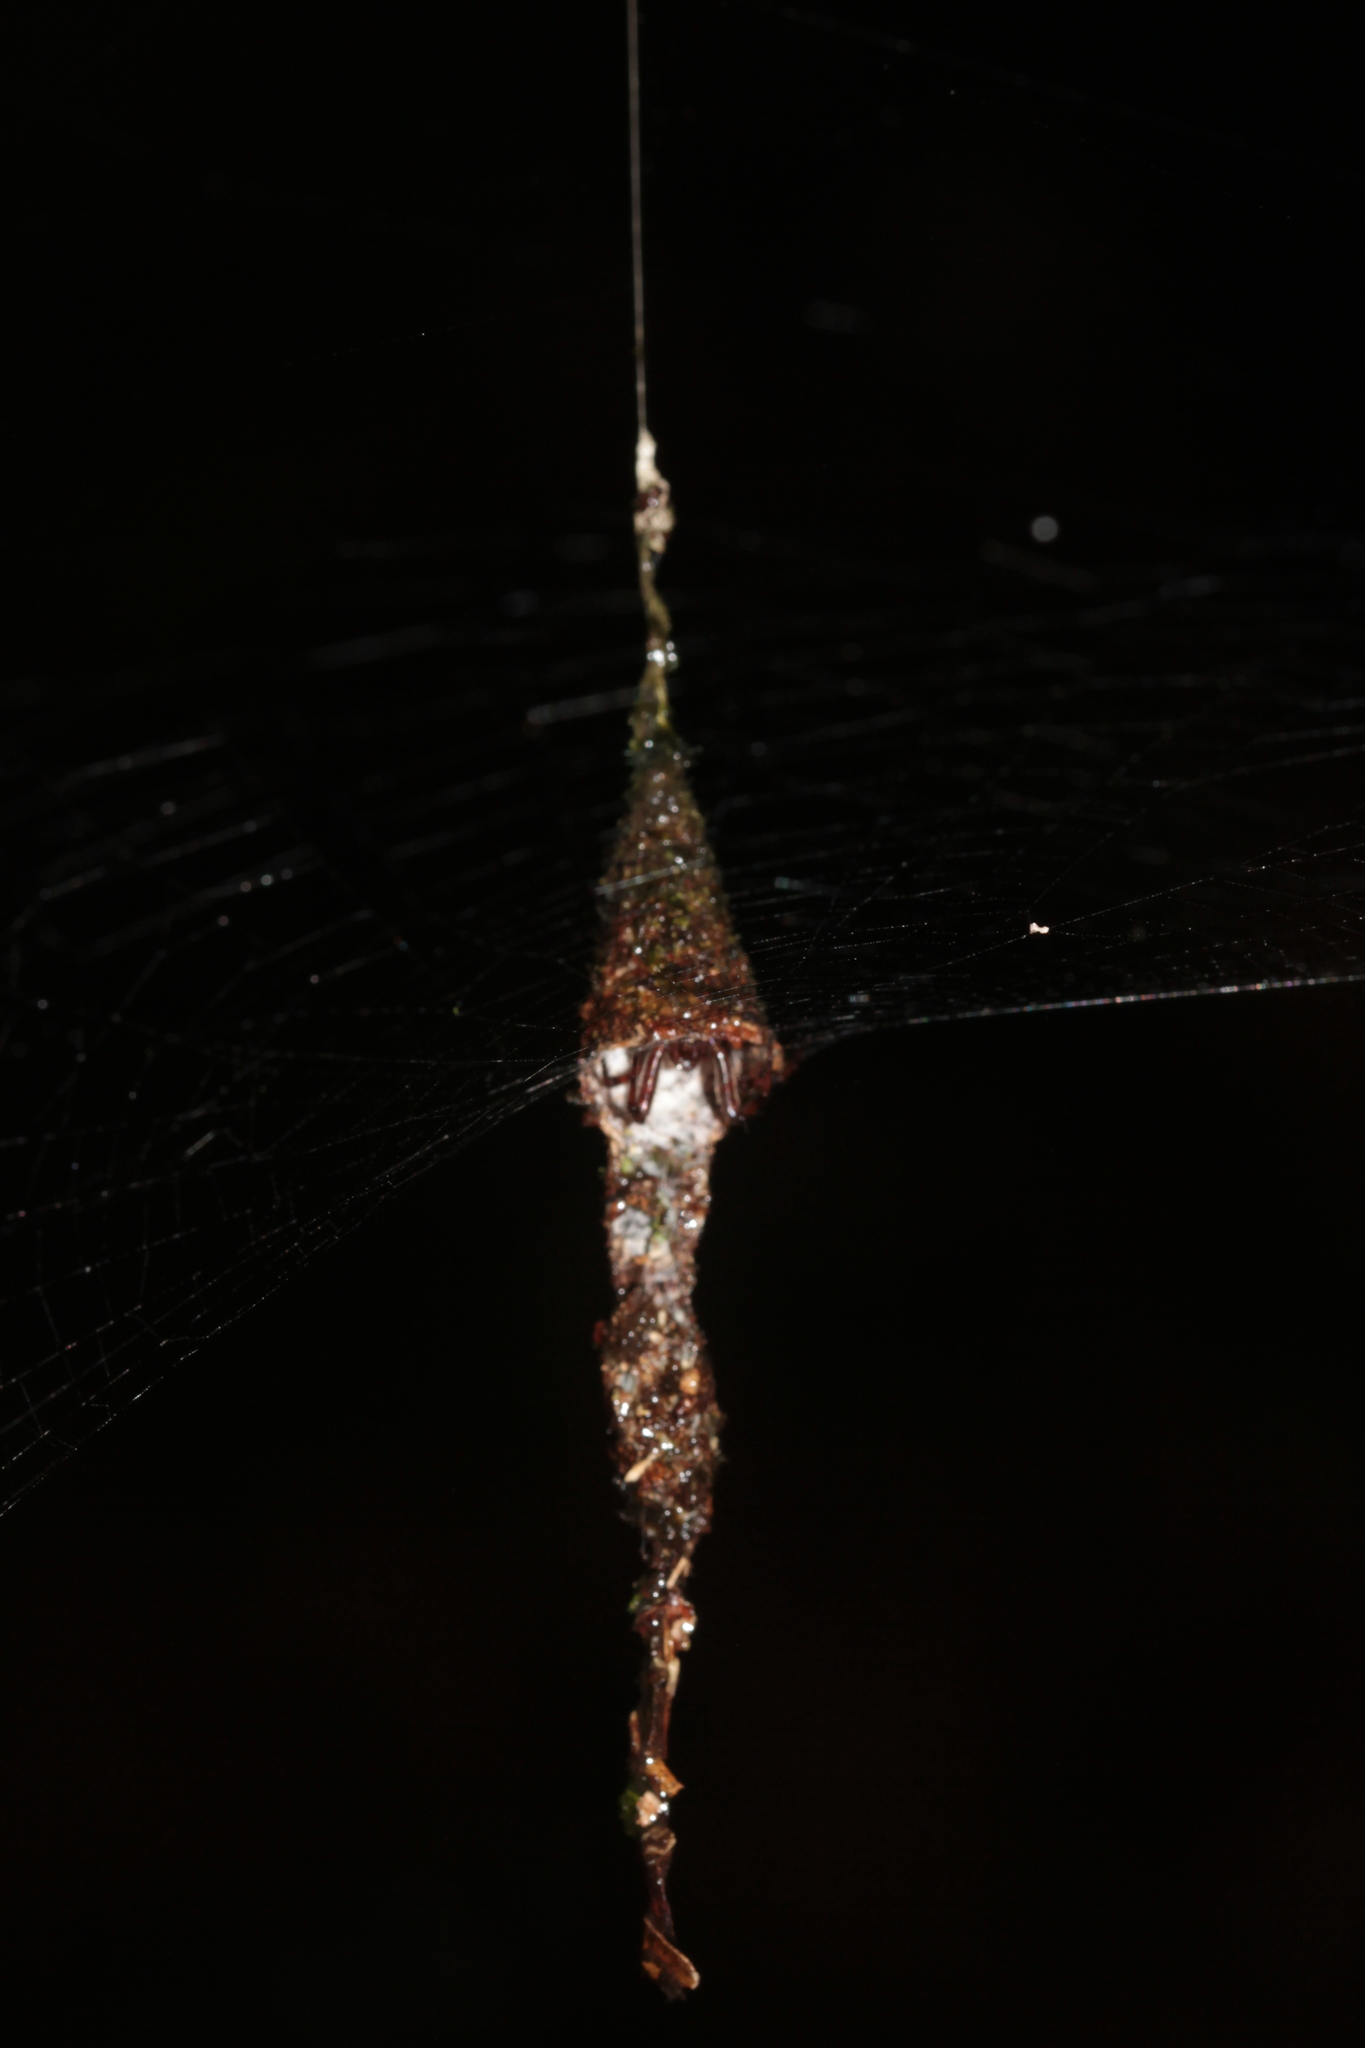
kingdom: Animalia
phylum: Arthropoda
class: Arachnida
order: Araneae
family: Araneidae
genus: Spilasma
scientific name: Spilasma duodecimguttata
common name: Orb weavers
